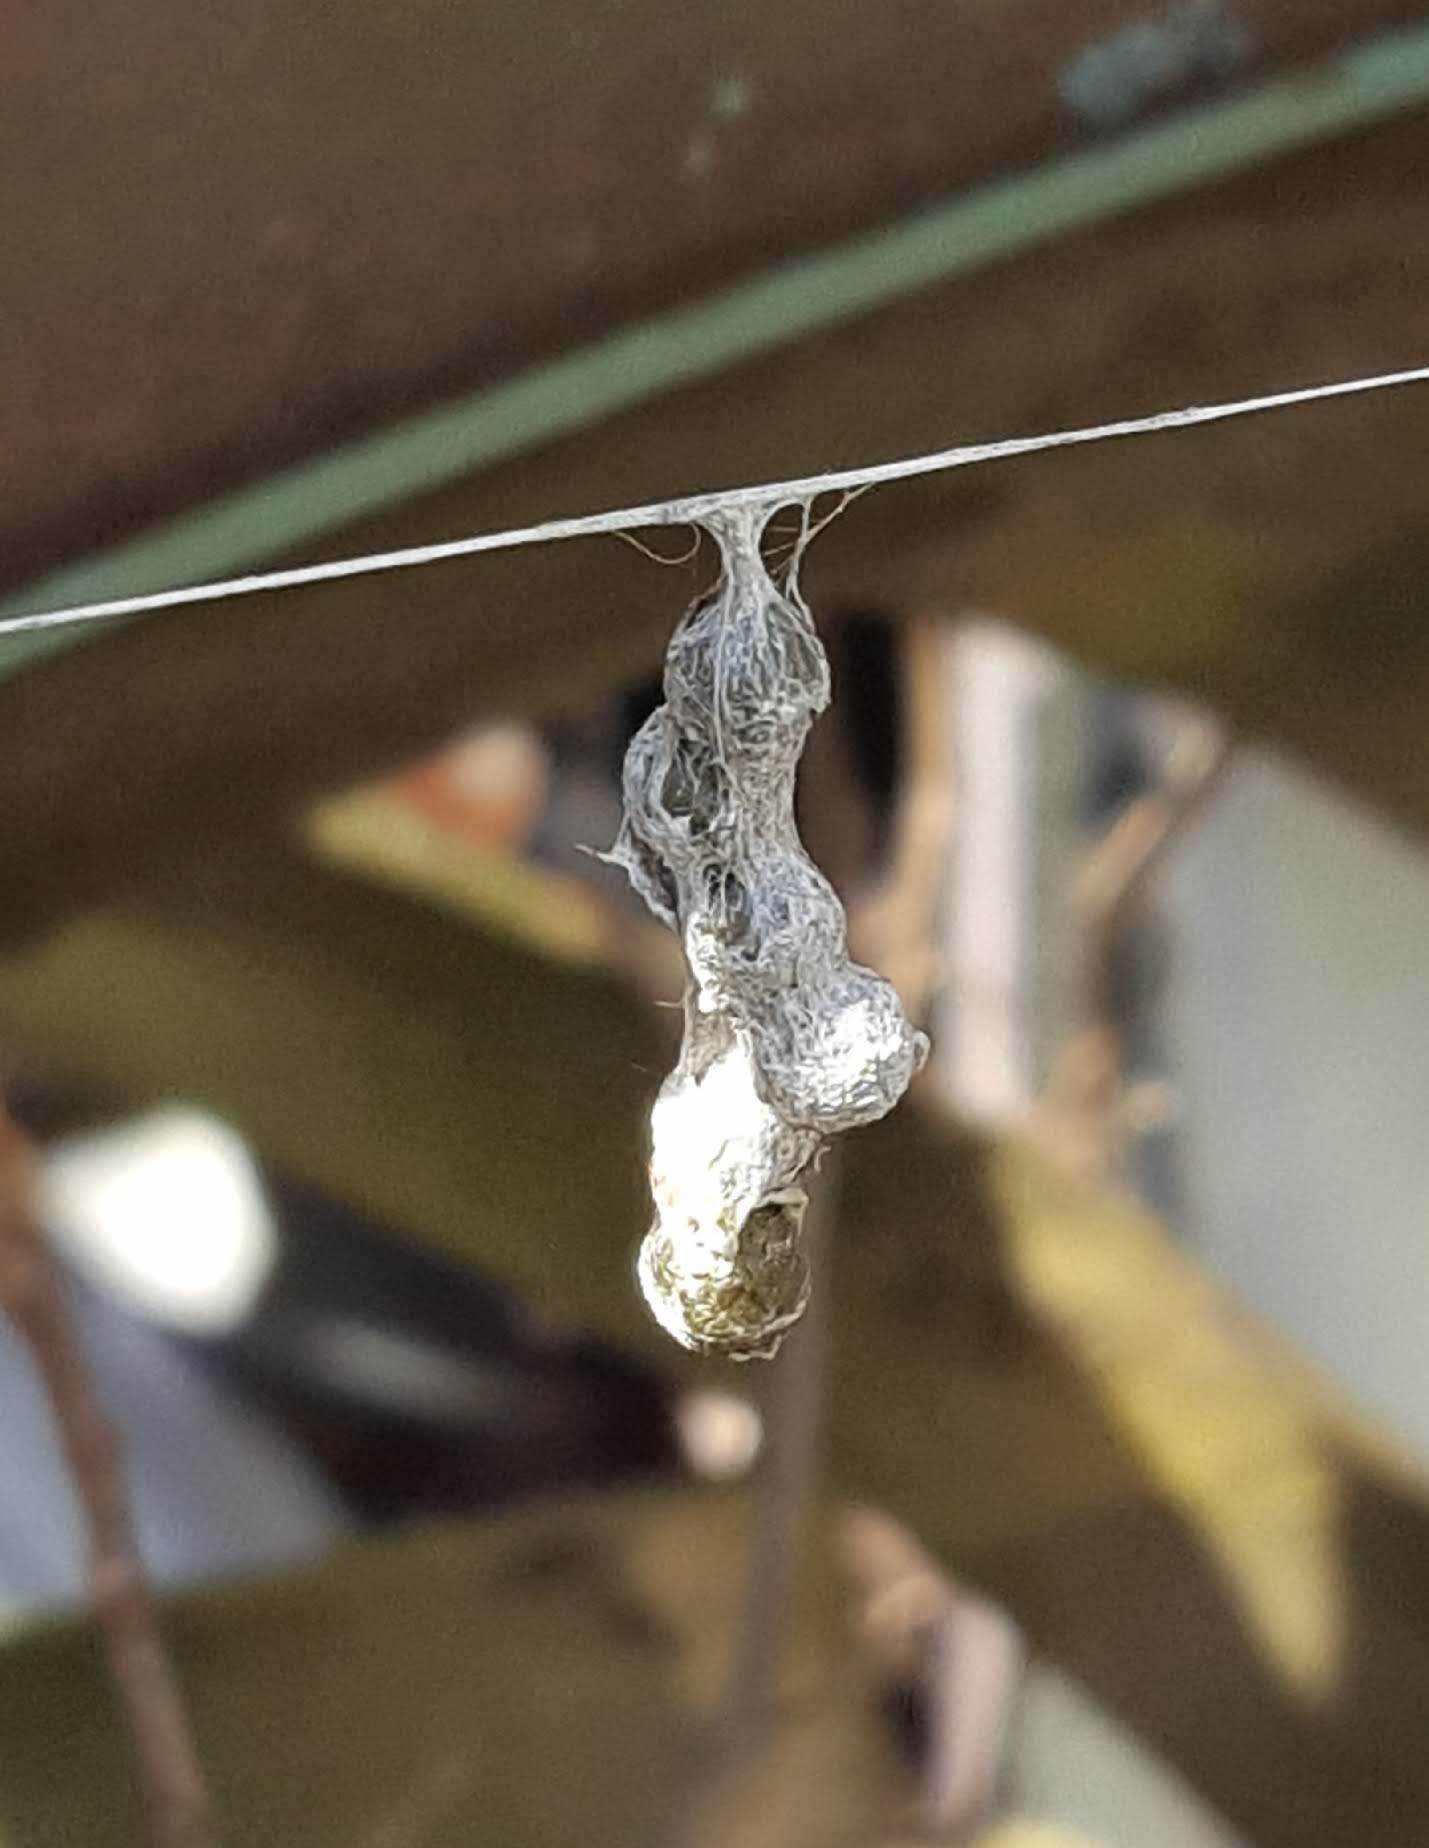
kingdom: Animalia
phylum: Arthropoda
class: Arachnida
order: Araneae
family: Araneidae
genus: Mecynogea
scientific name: Mecynogea lemniscata
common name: Orb weavers
